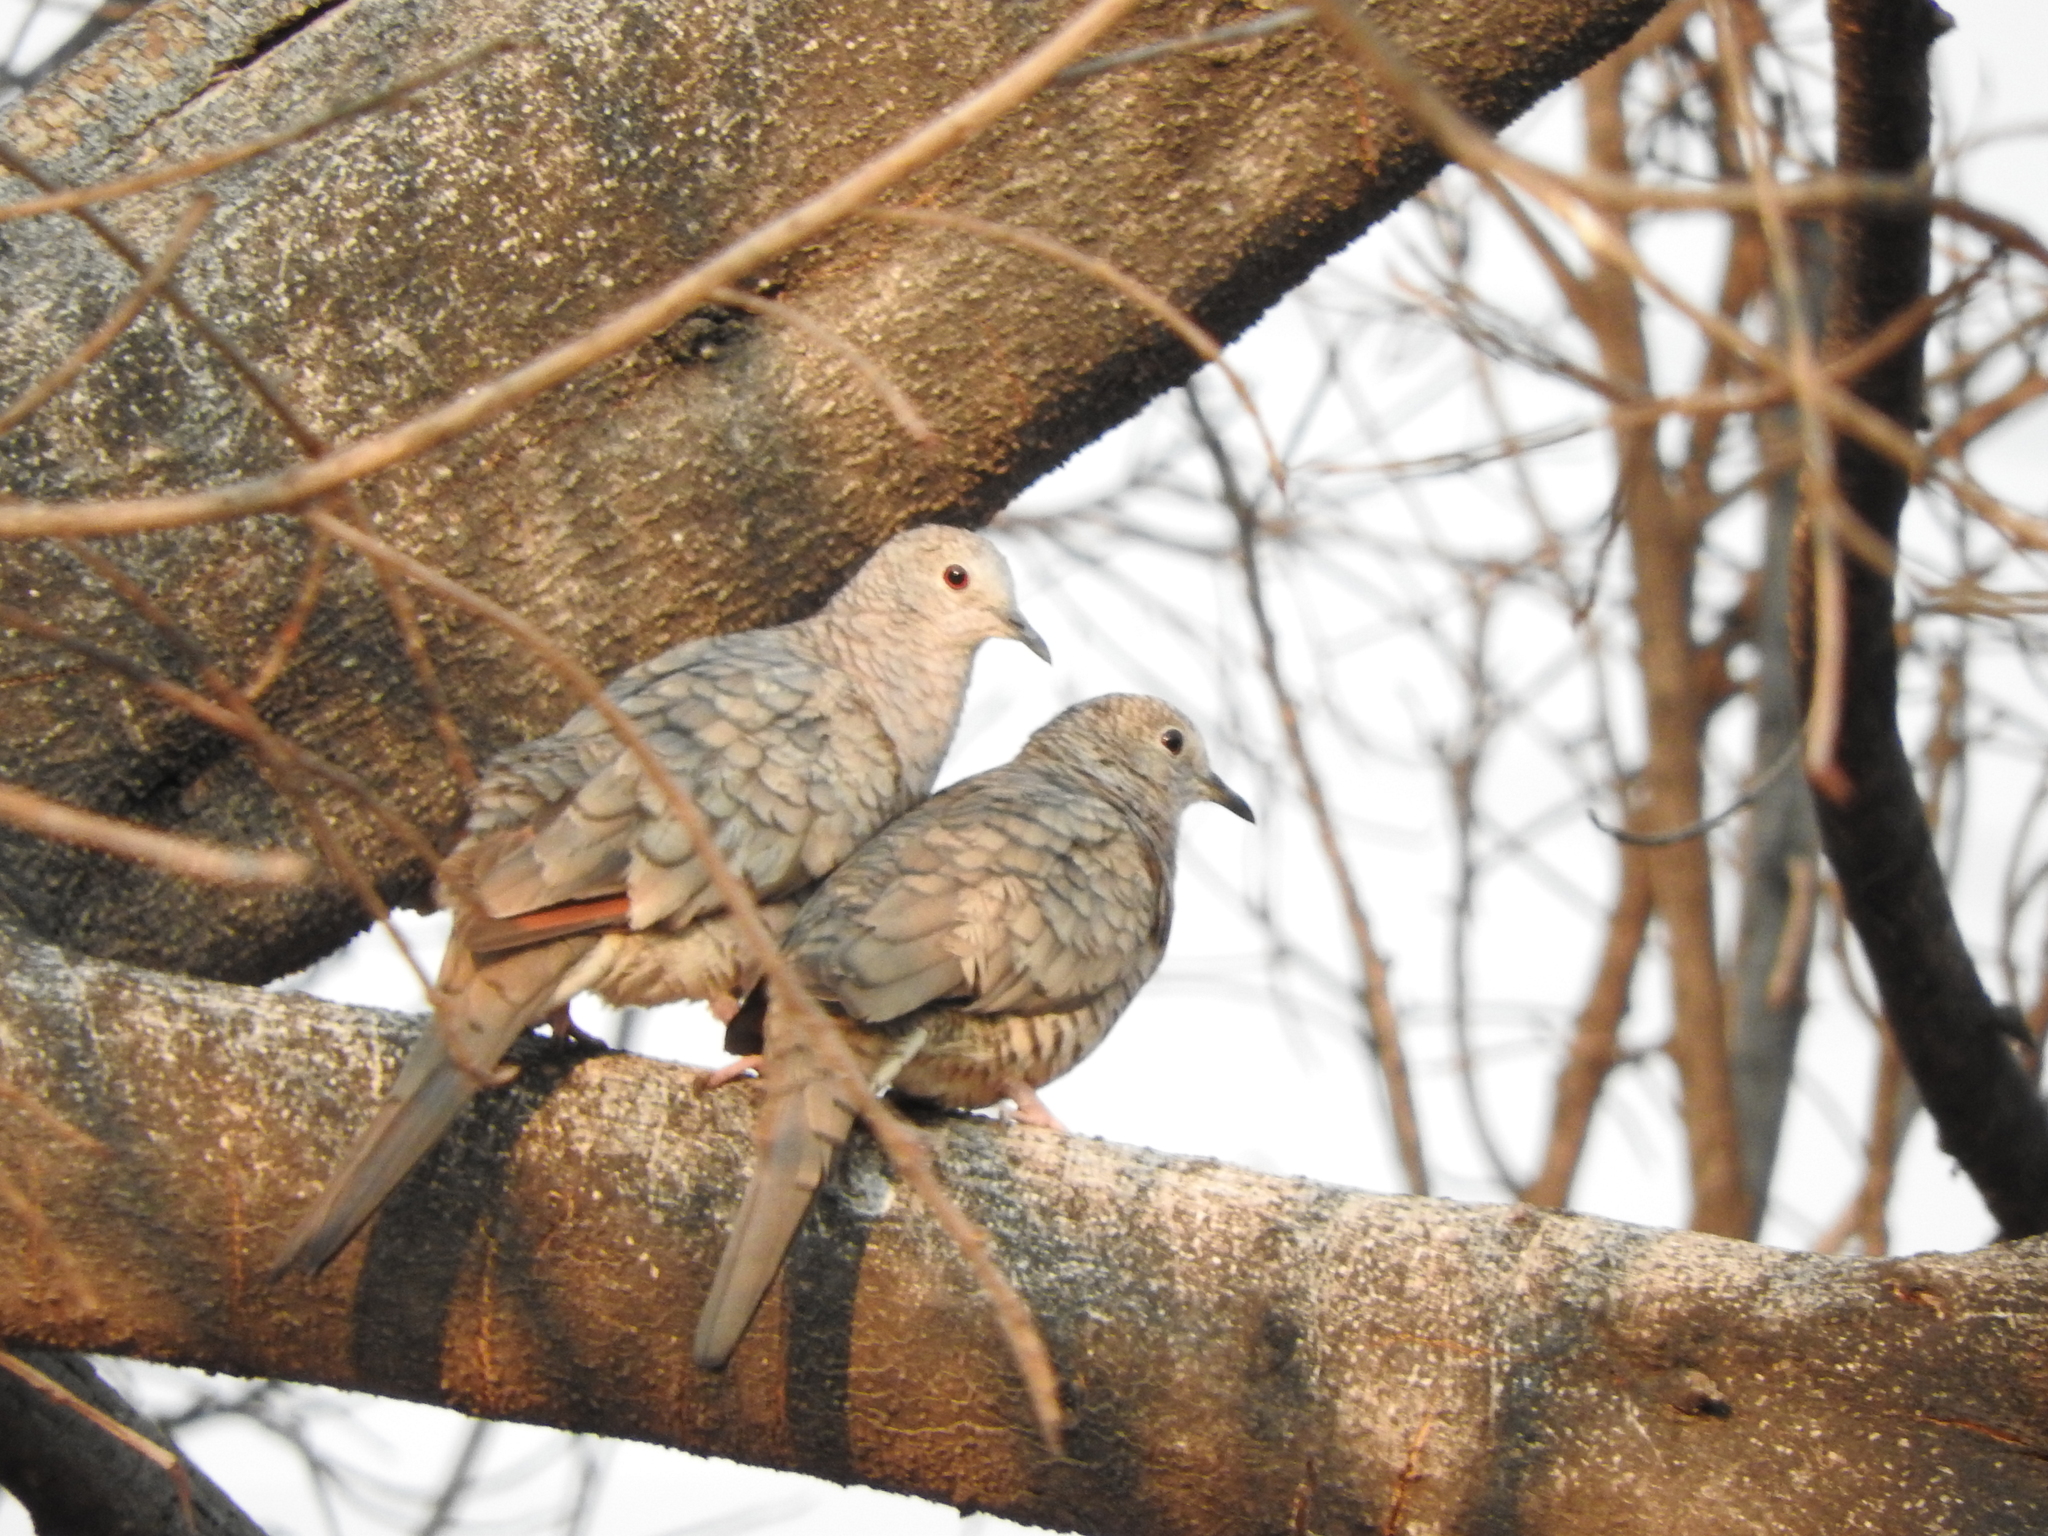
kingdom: Animalia
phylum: Chordata
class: Aves
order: Columbiformes
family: Columbidae
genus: Columbina
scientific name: Columbina inca
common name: Inca dove
